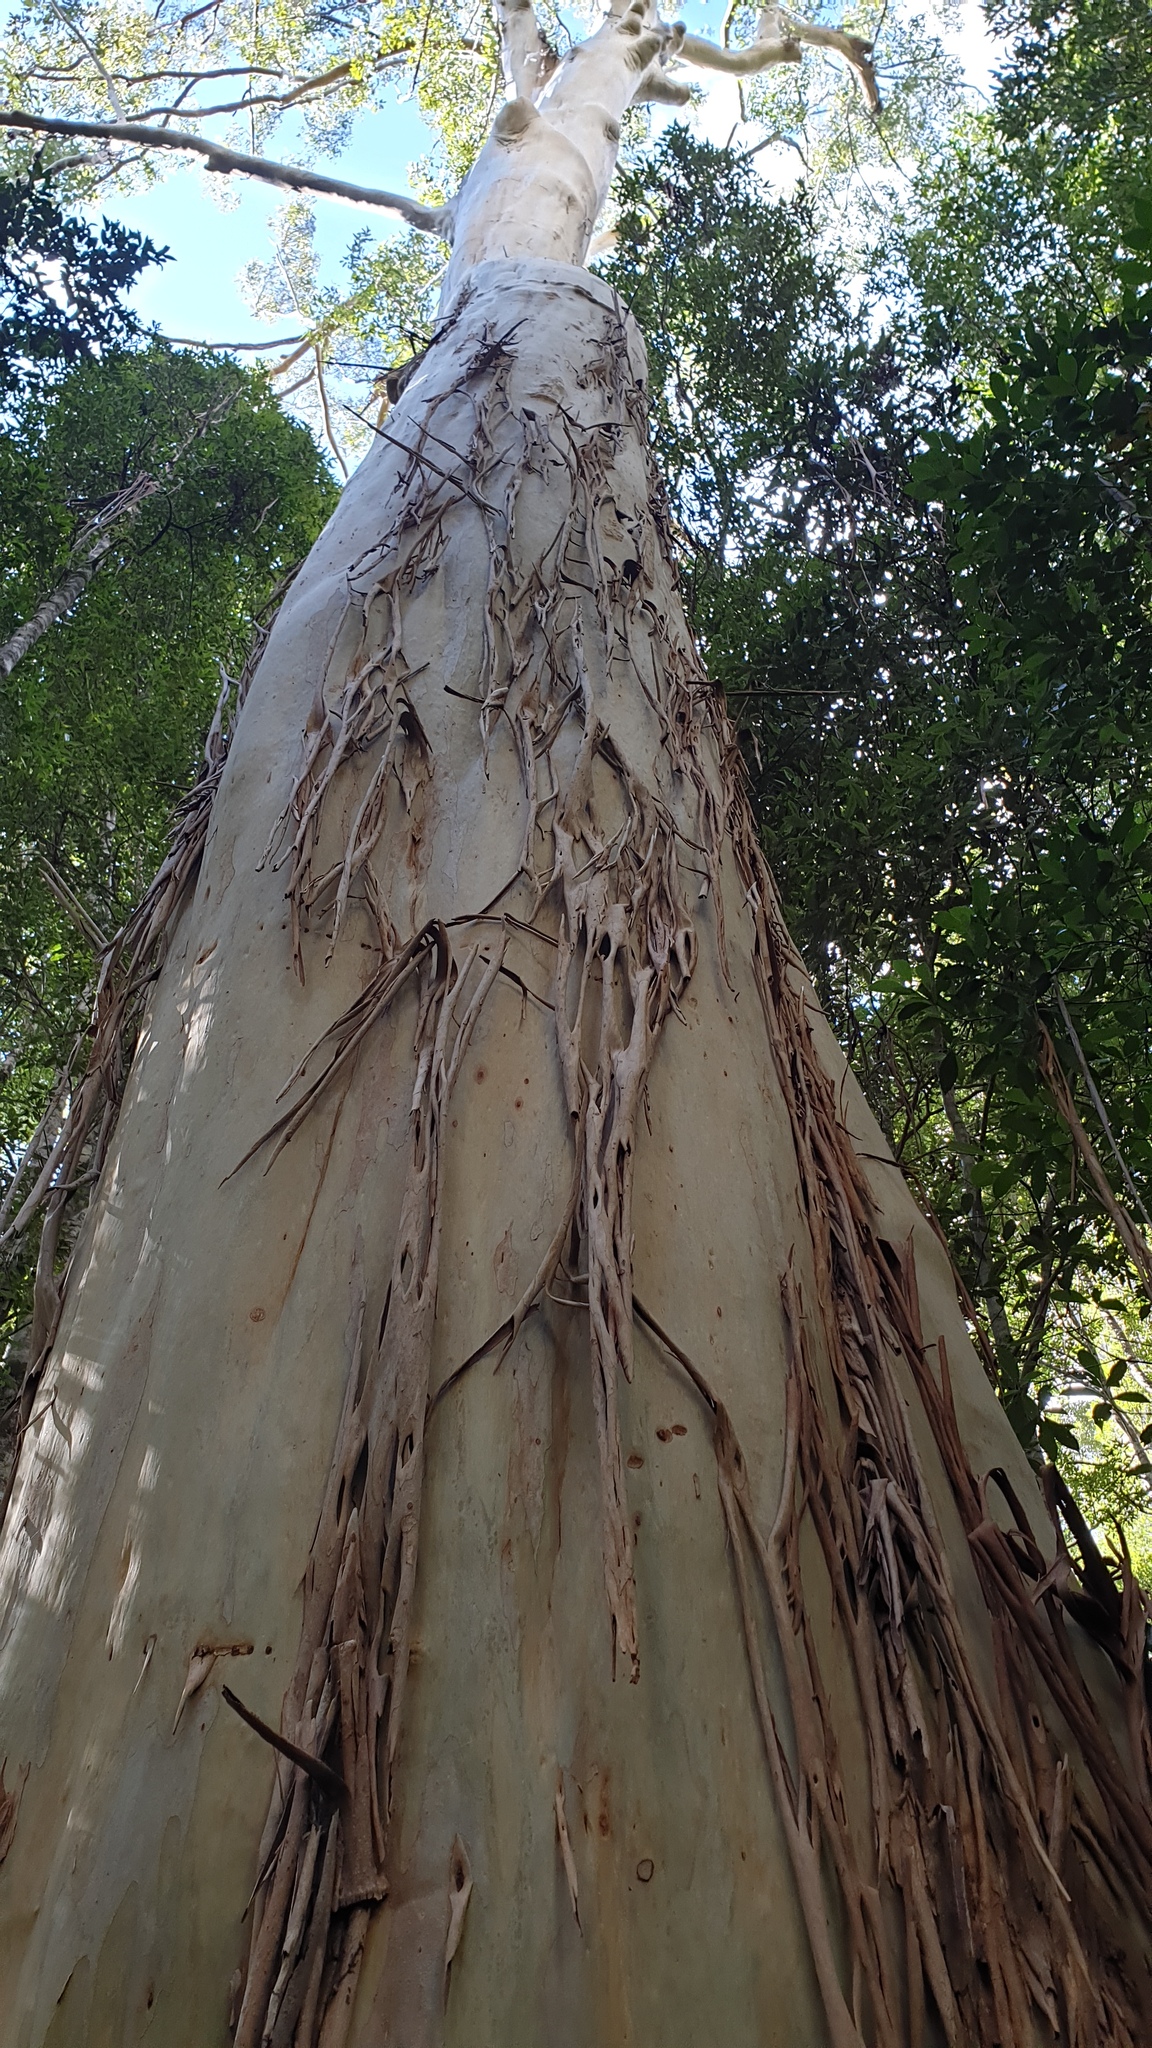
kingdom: Plantae
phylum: Tracheophyta
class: Magnoliopsida
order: Myrtales
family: Myrtaceae
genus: Eucalyptus
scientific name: Eucalyptus saligna
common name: Blue gum
